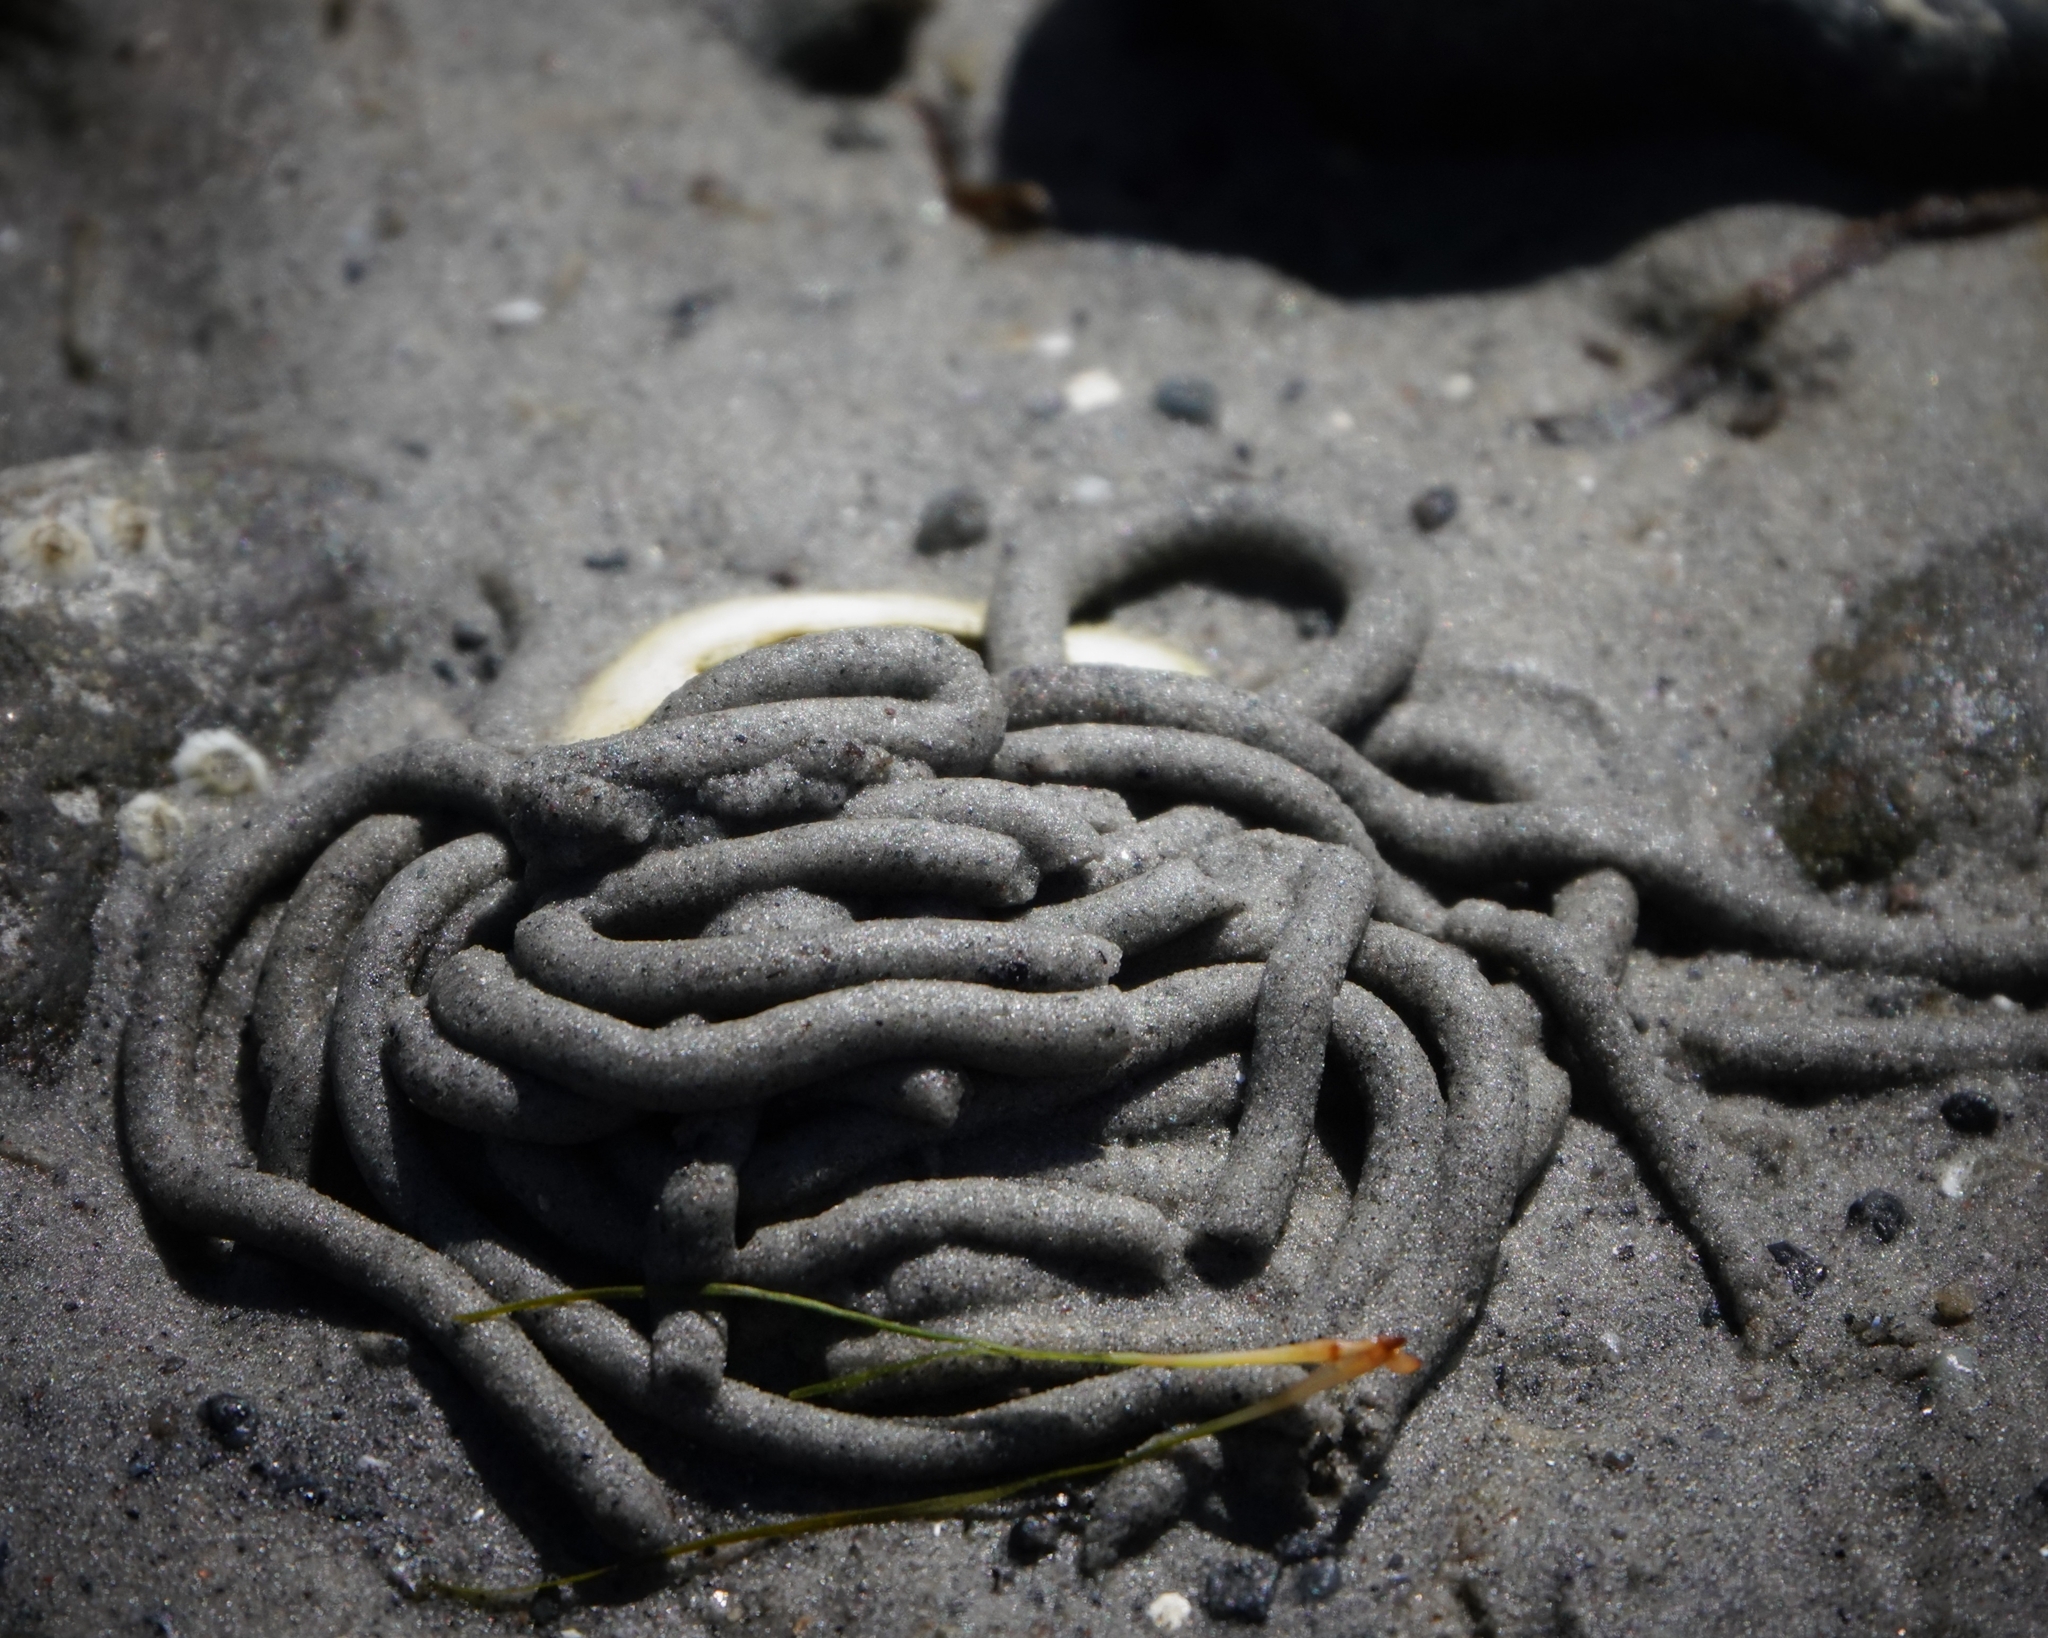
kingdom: Animalia
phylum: Annelida
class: Polychaeta
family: Arenicolidae
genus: Arenicola
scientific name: Arenicola marina
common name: Blow lugworm
